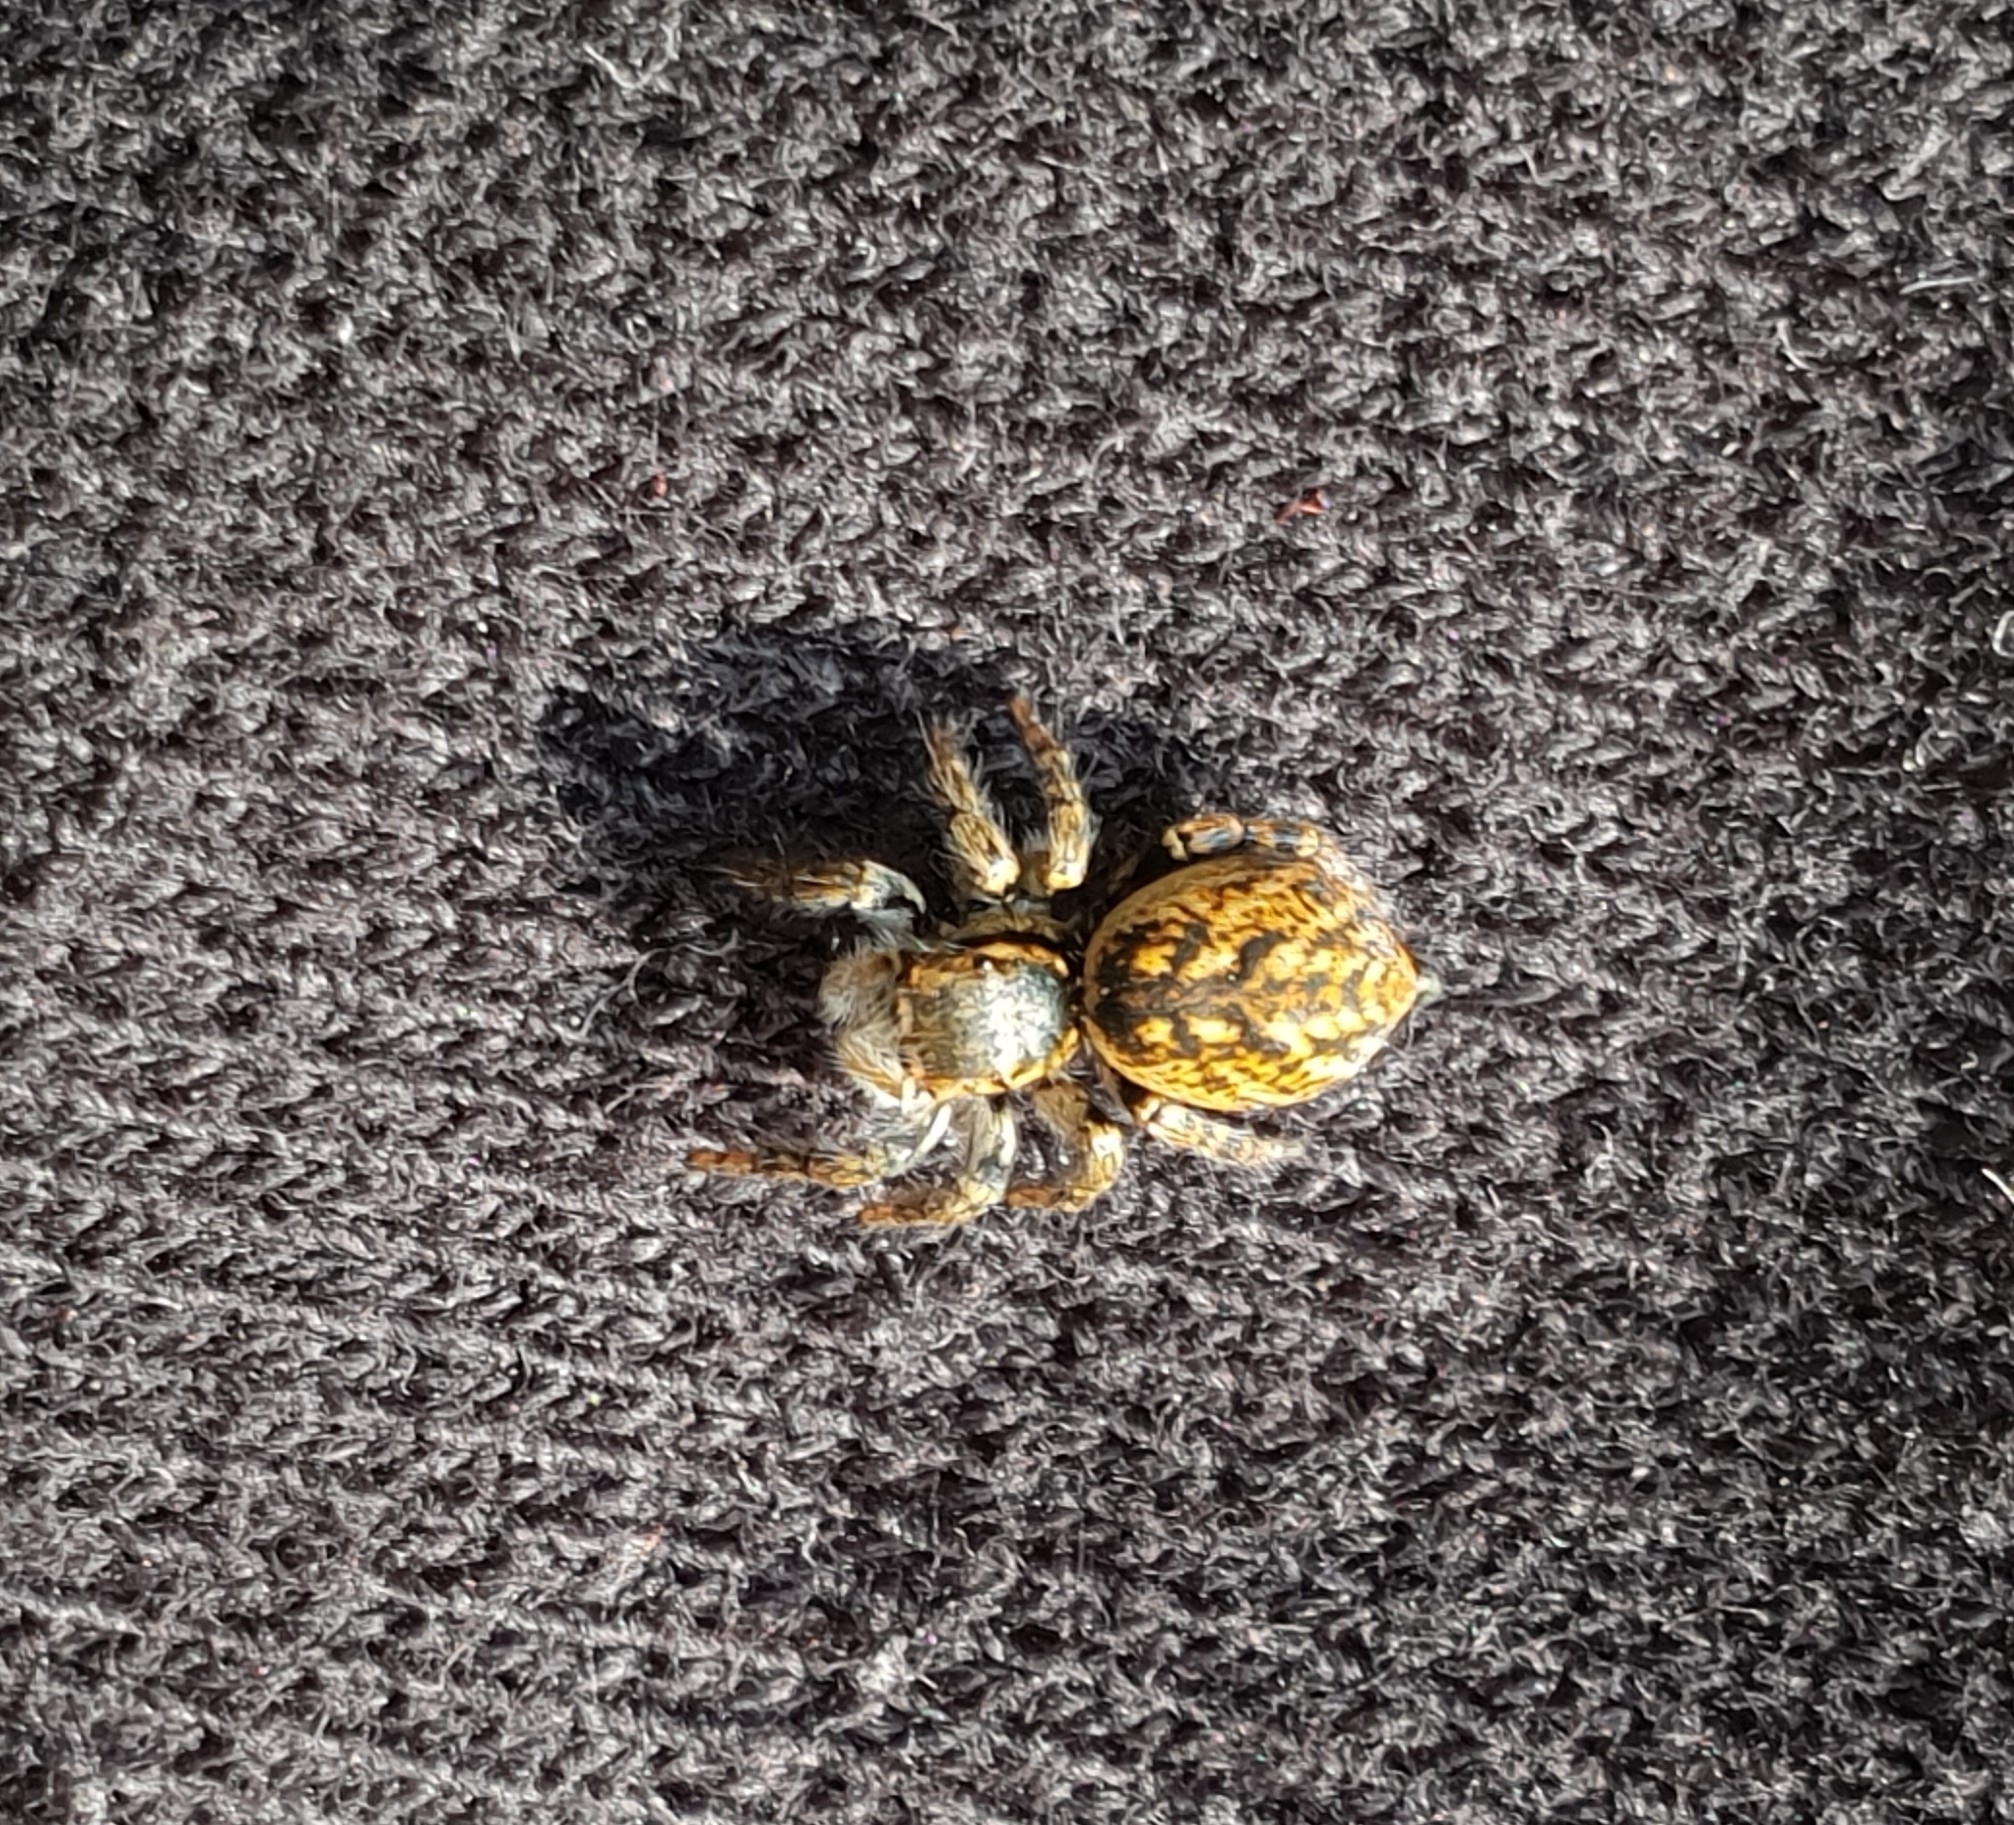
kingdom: Animalia
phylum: Arthropoda
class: Arachnida
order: Araneae
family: Salticidae
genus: Carrhotus
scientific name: Carrhotus xanthogramma
